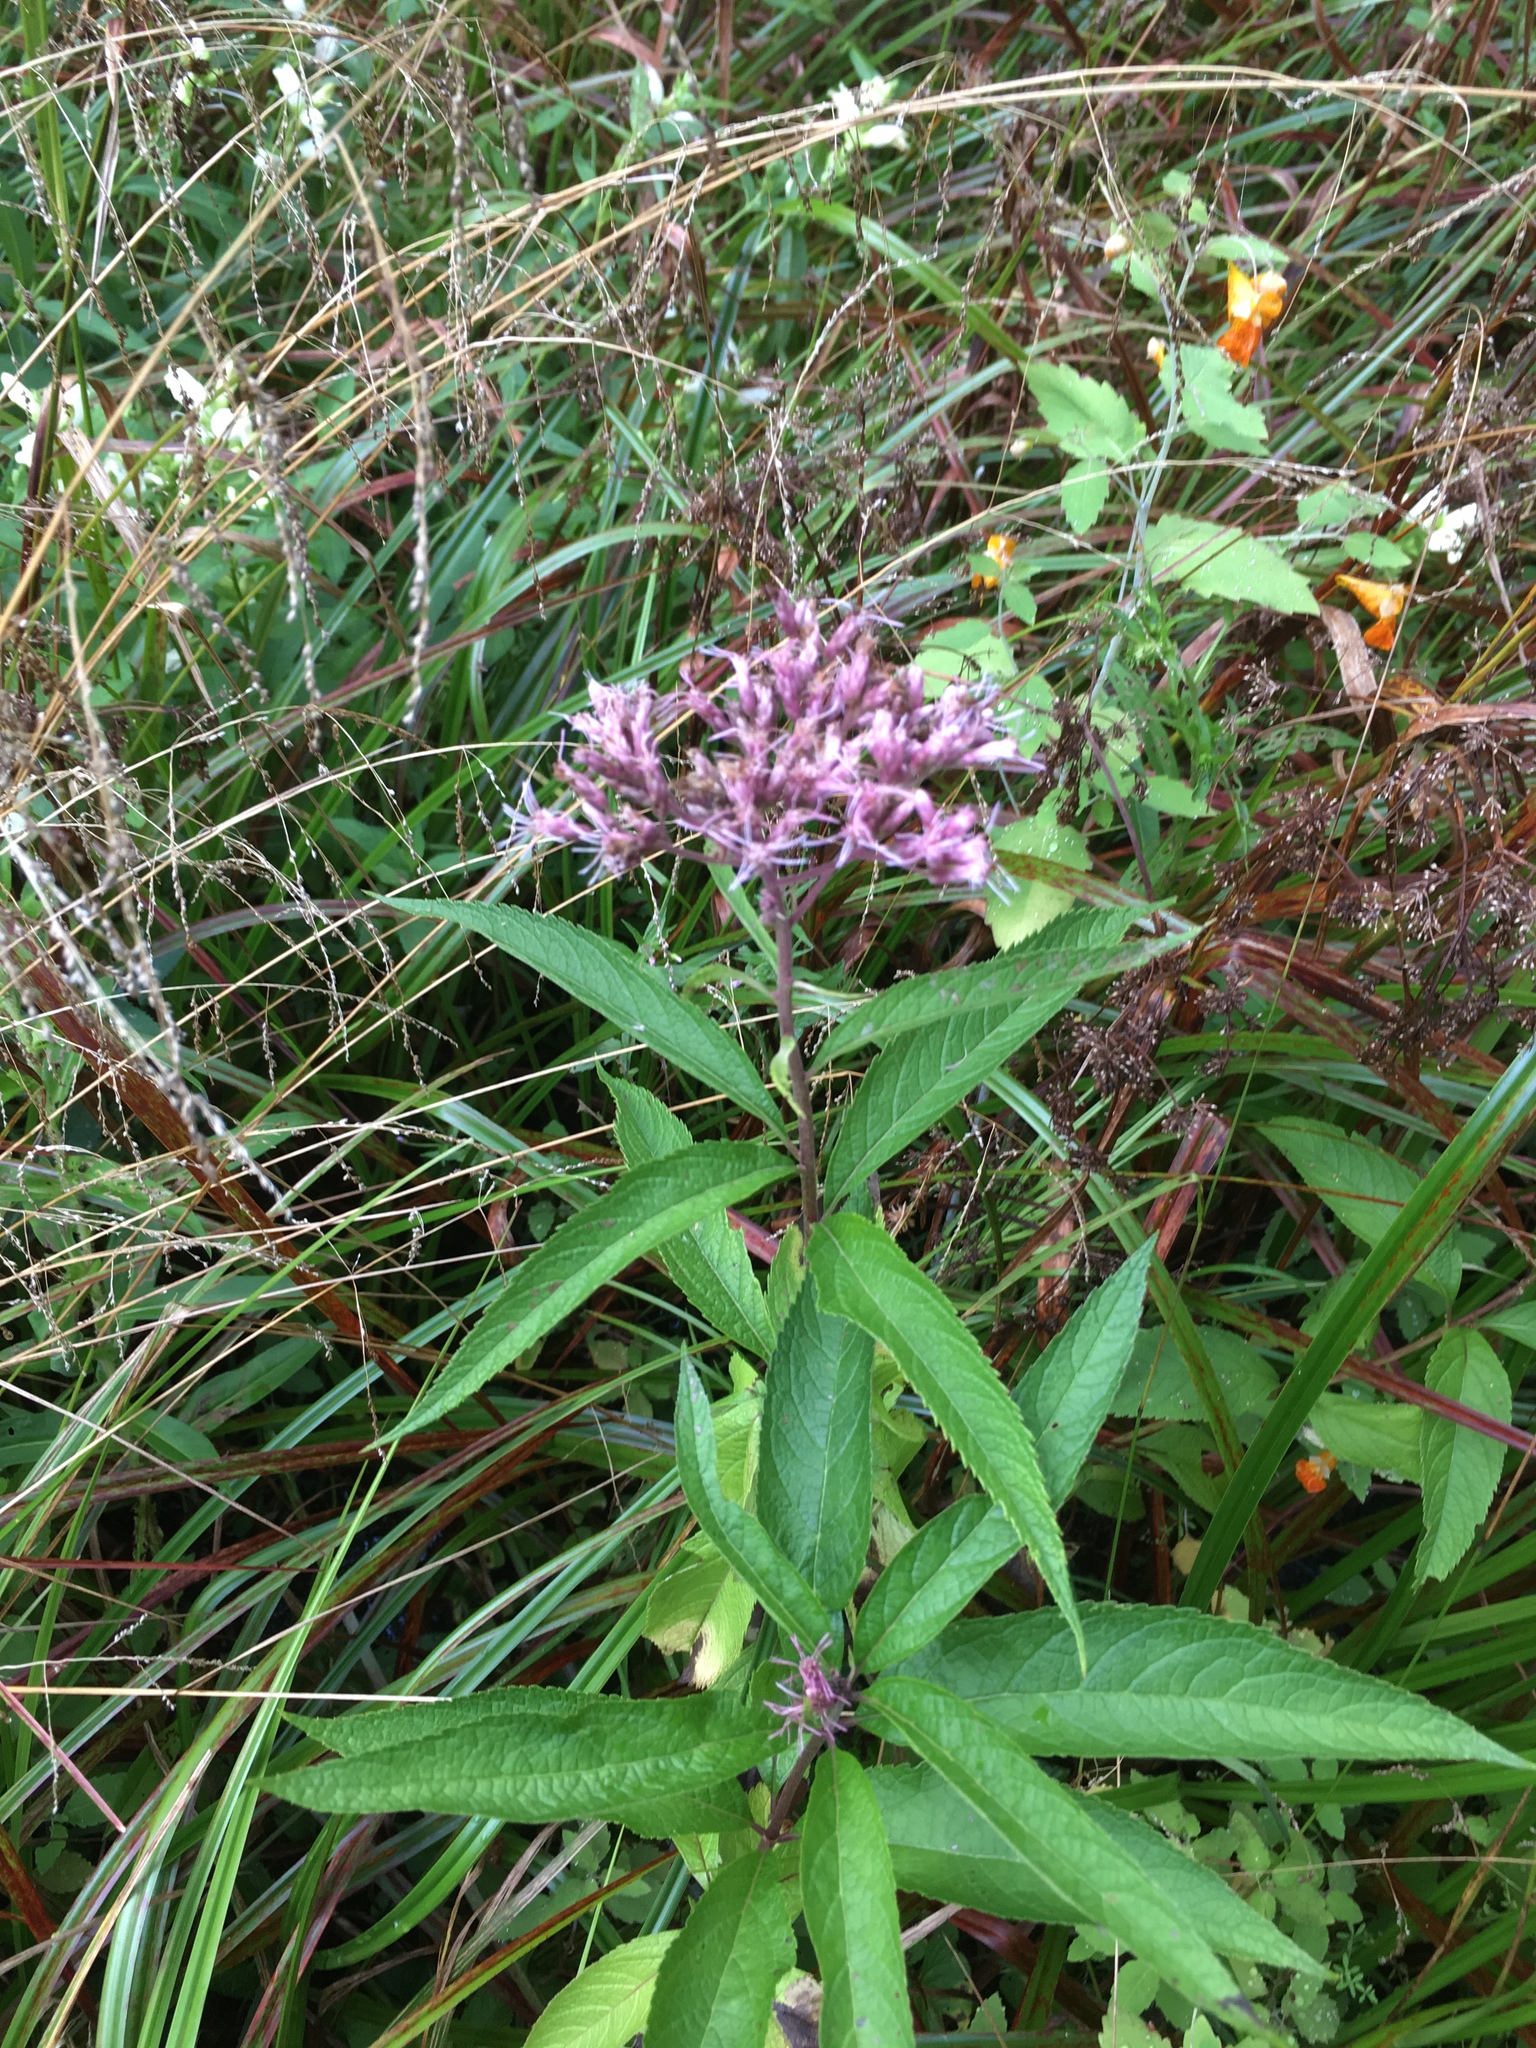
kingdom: Plantae
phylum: Tracheophyta
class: Magnoliopsida
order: Asterales
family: Asteraceae
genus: Eutrochium
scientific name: Eutrochium maculatum
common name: Spotted joe pye weed
